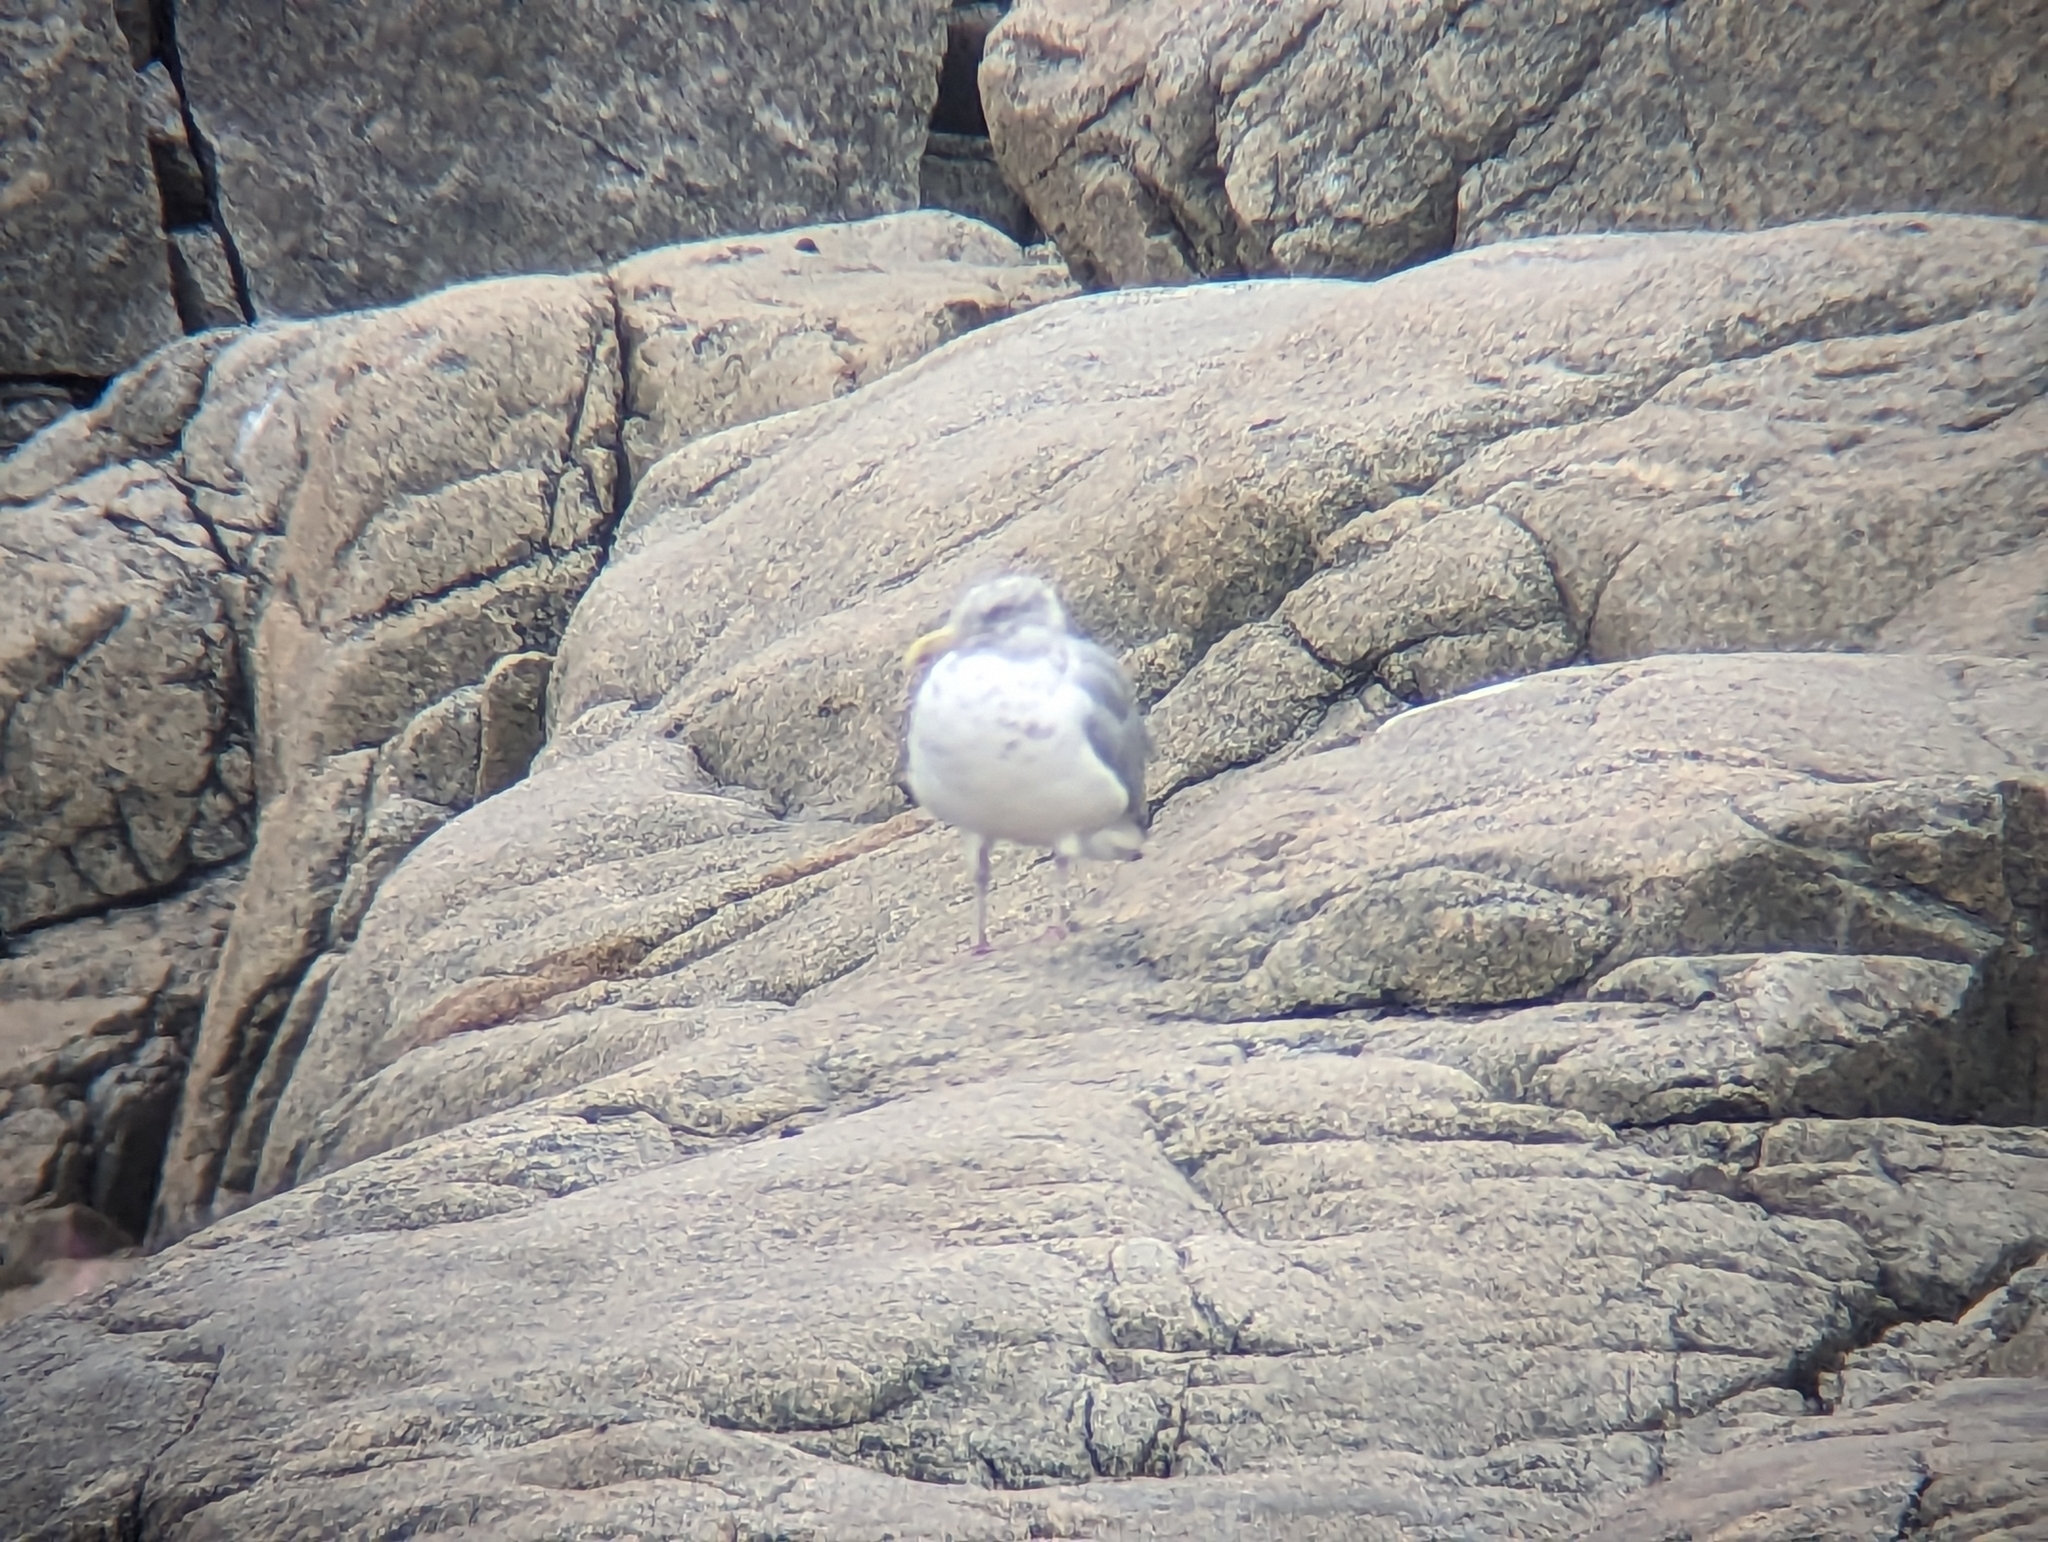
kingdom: Animalia
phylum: Chordata
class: Aves
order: Charadriiformes
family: Laridae
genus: Larus
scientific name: Larus argentatus
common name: Herring gull
